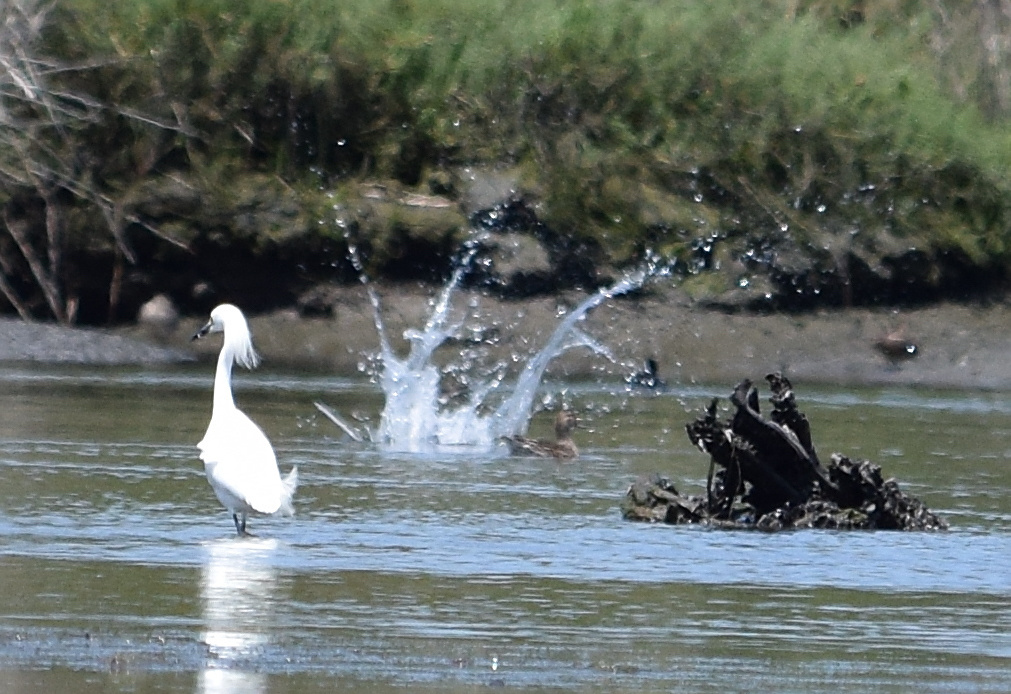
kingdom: Animalia
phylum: Chordata
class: Aves
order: Charadriiformes
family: Laridae
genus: Sterna
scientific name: Sterna forsteri
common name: Forster's tern
